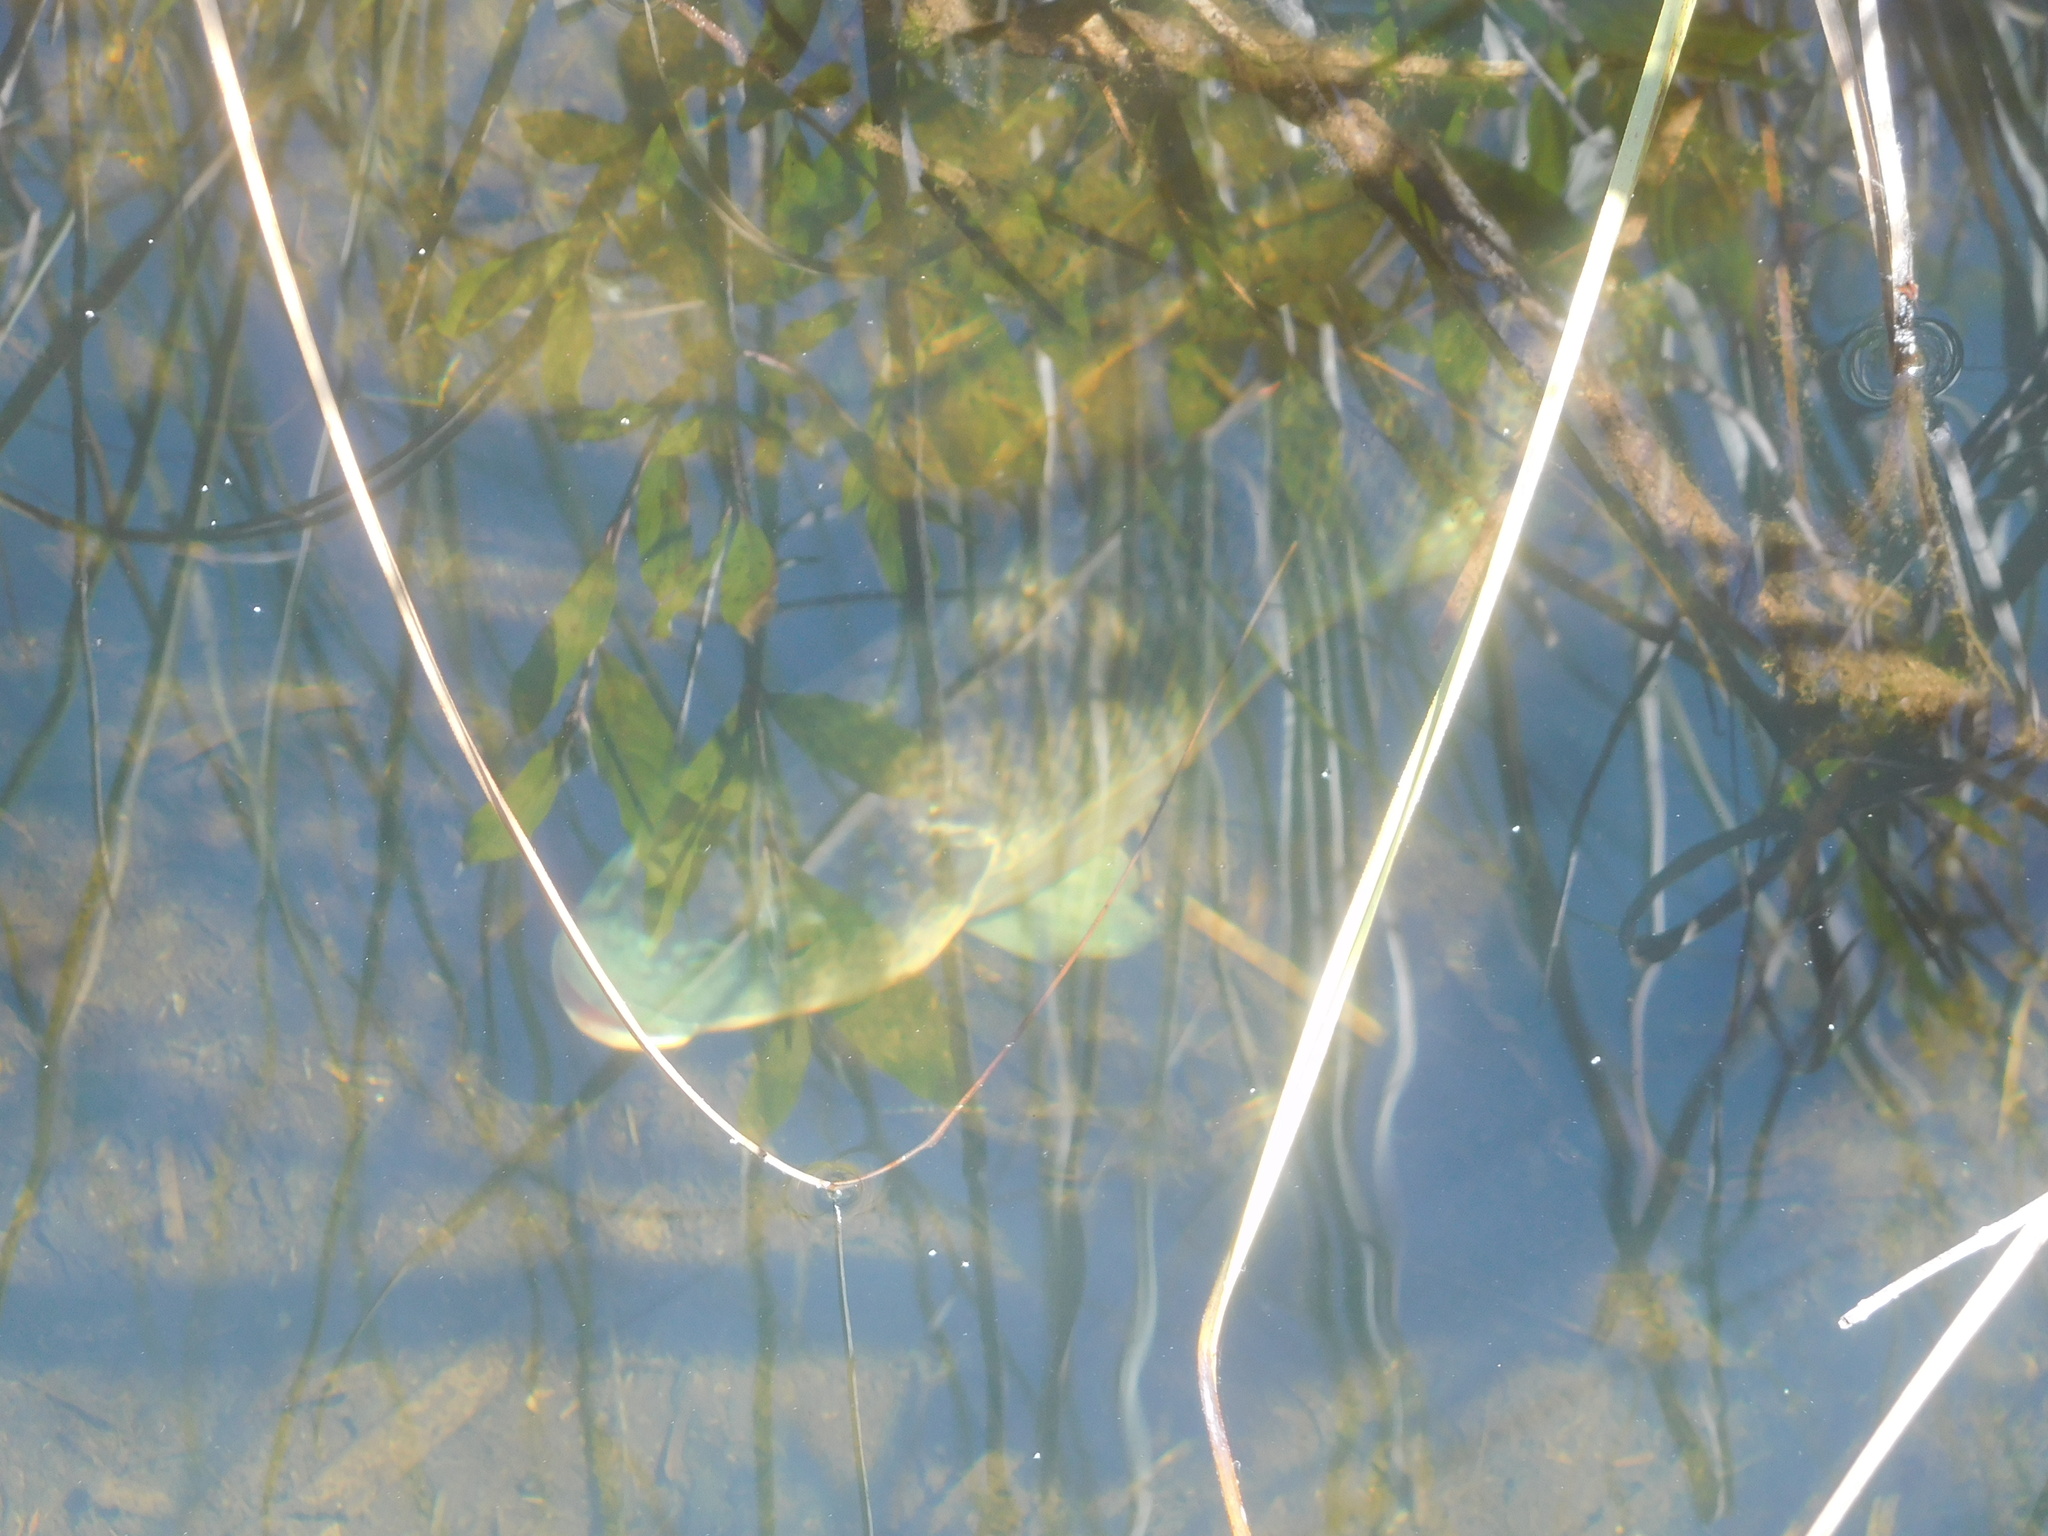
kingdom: Animalia
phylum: Chordata
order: Perciformes
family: Cichlidae
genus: Oreochromis
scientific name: Oreochromis aureus
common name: Blue tilapia
